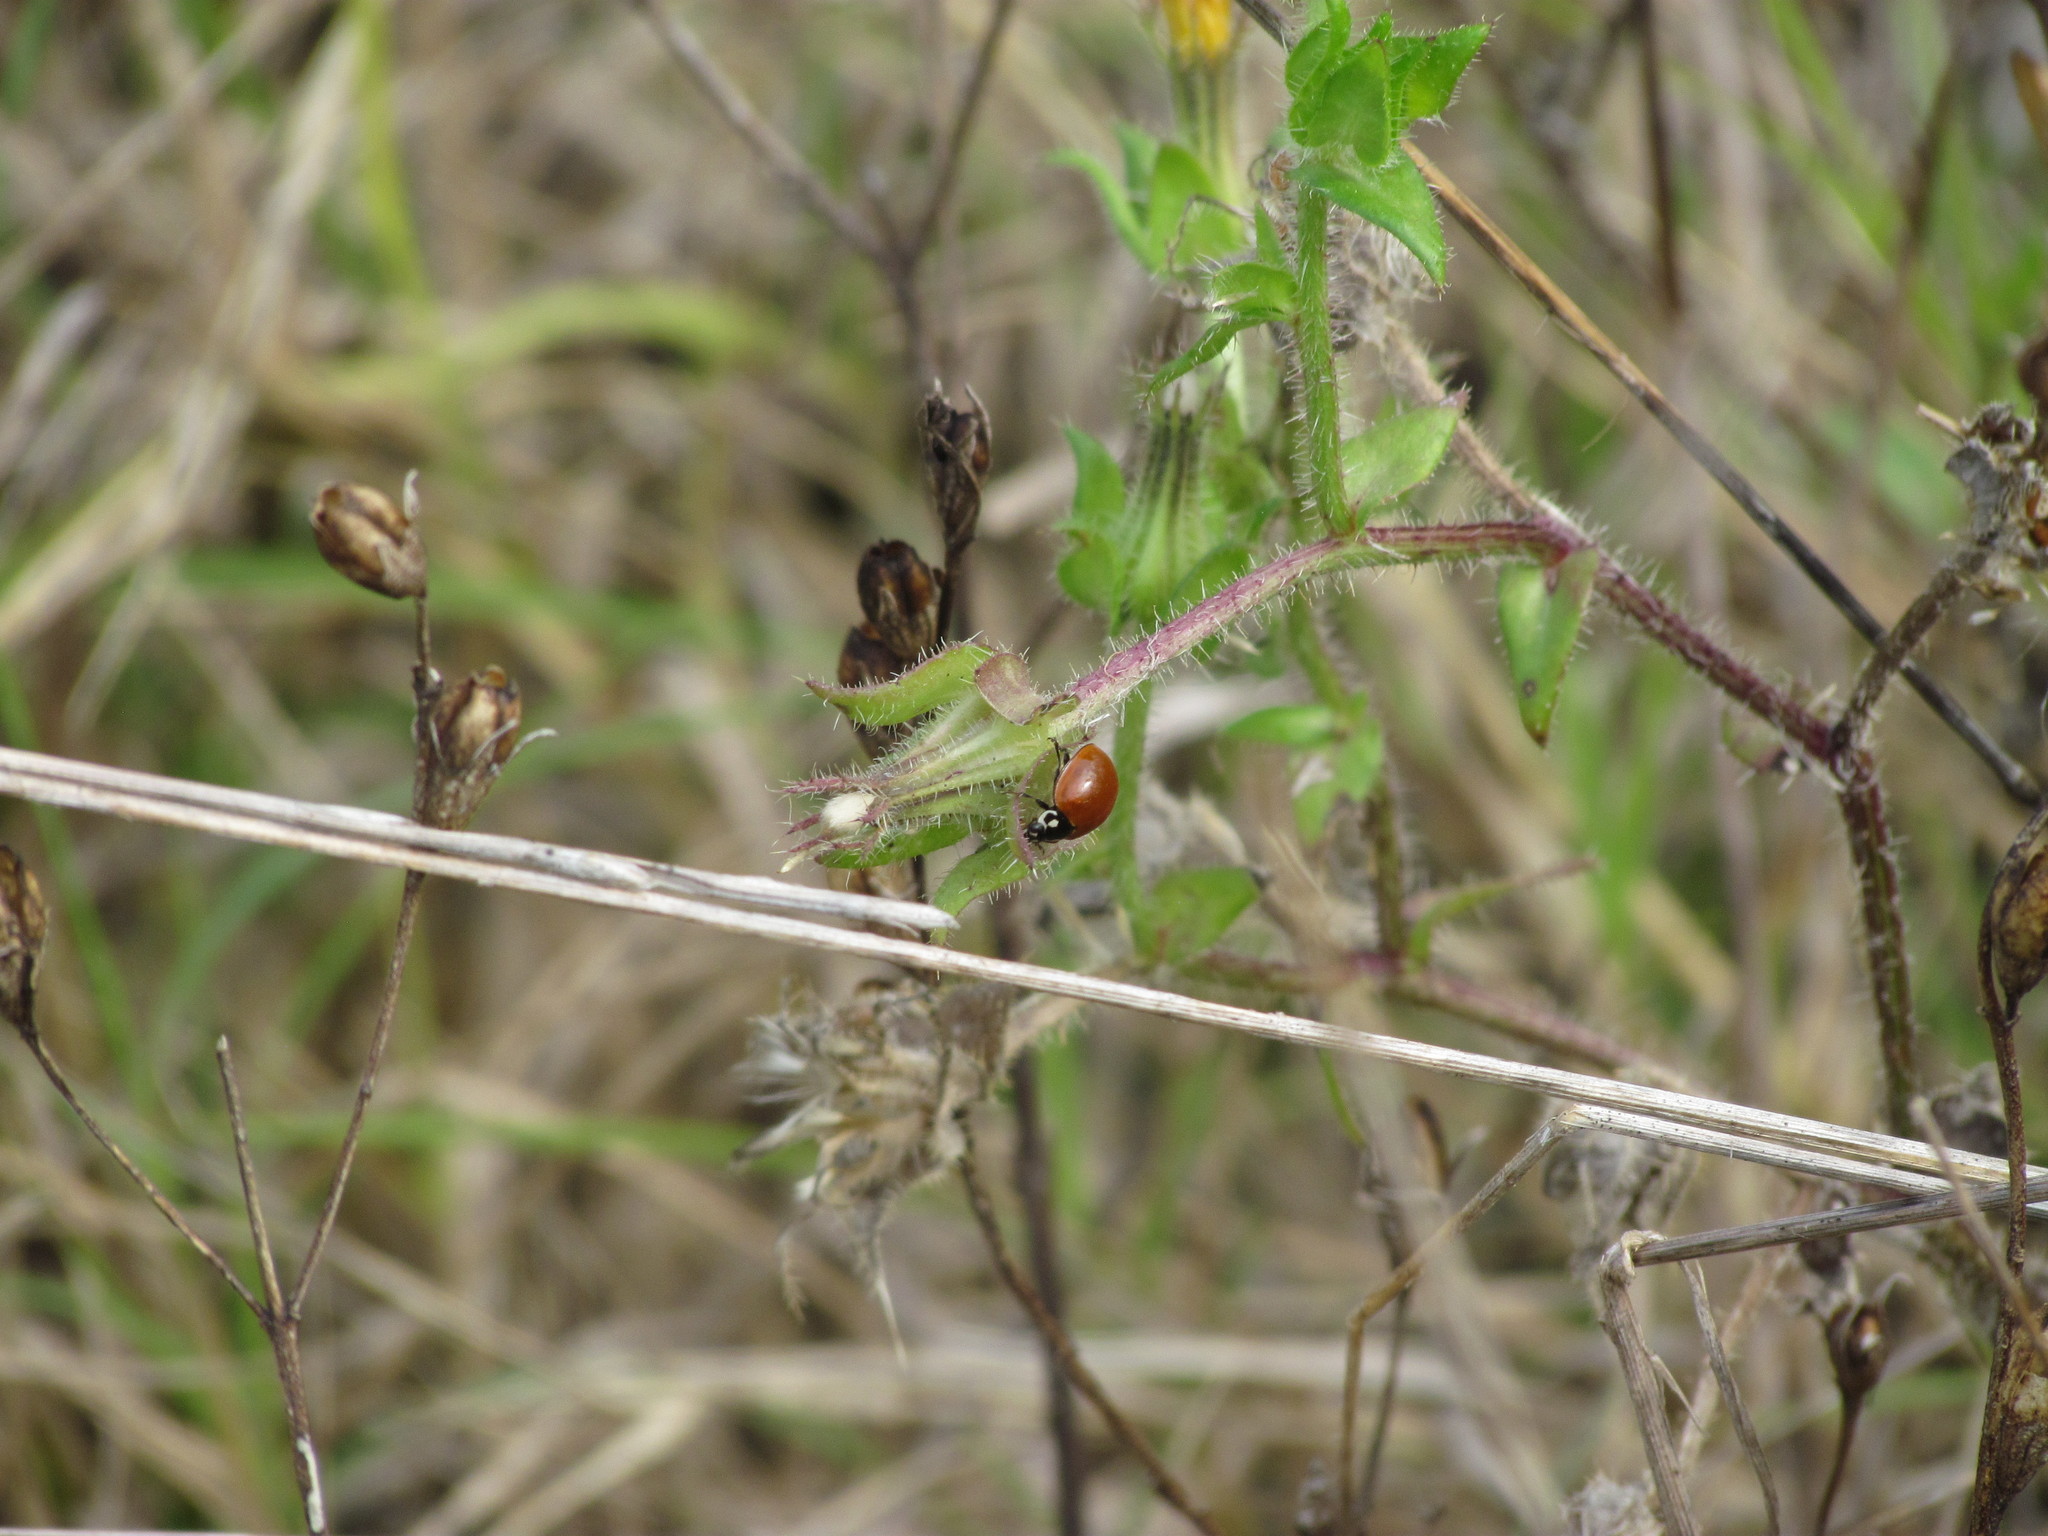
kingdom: Animalia
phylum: Arthropoda
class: Insecta
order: Coleoptera
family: Coccinellidae
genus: Cycloneda
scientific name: Cycloneda sanguinea
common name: Ladybird beetle
